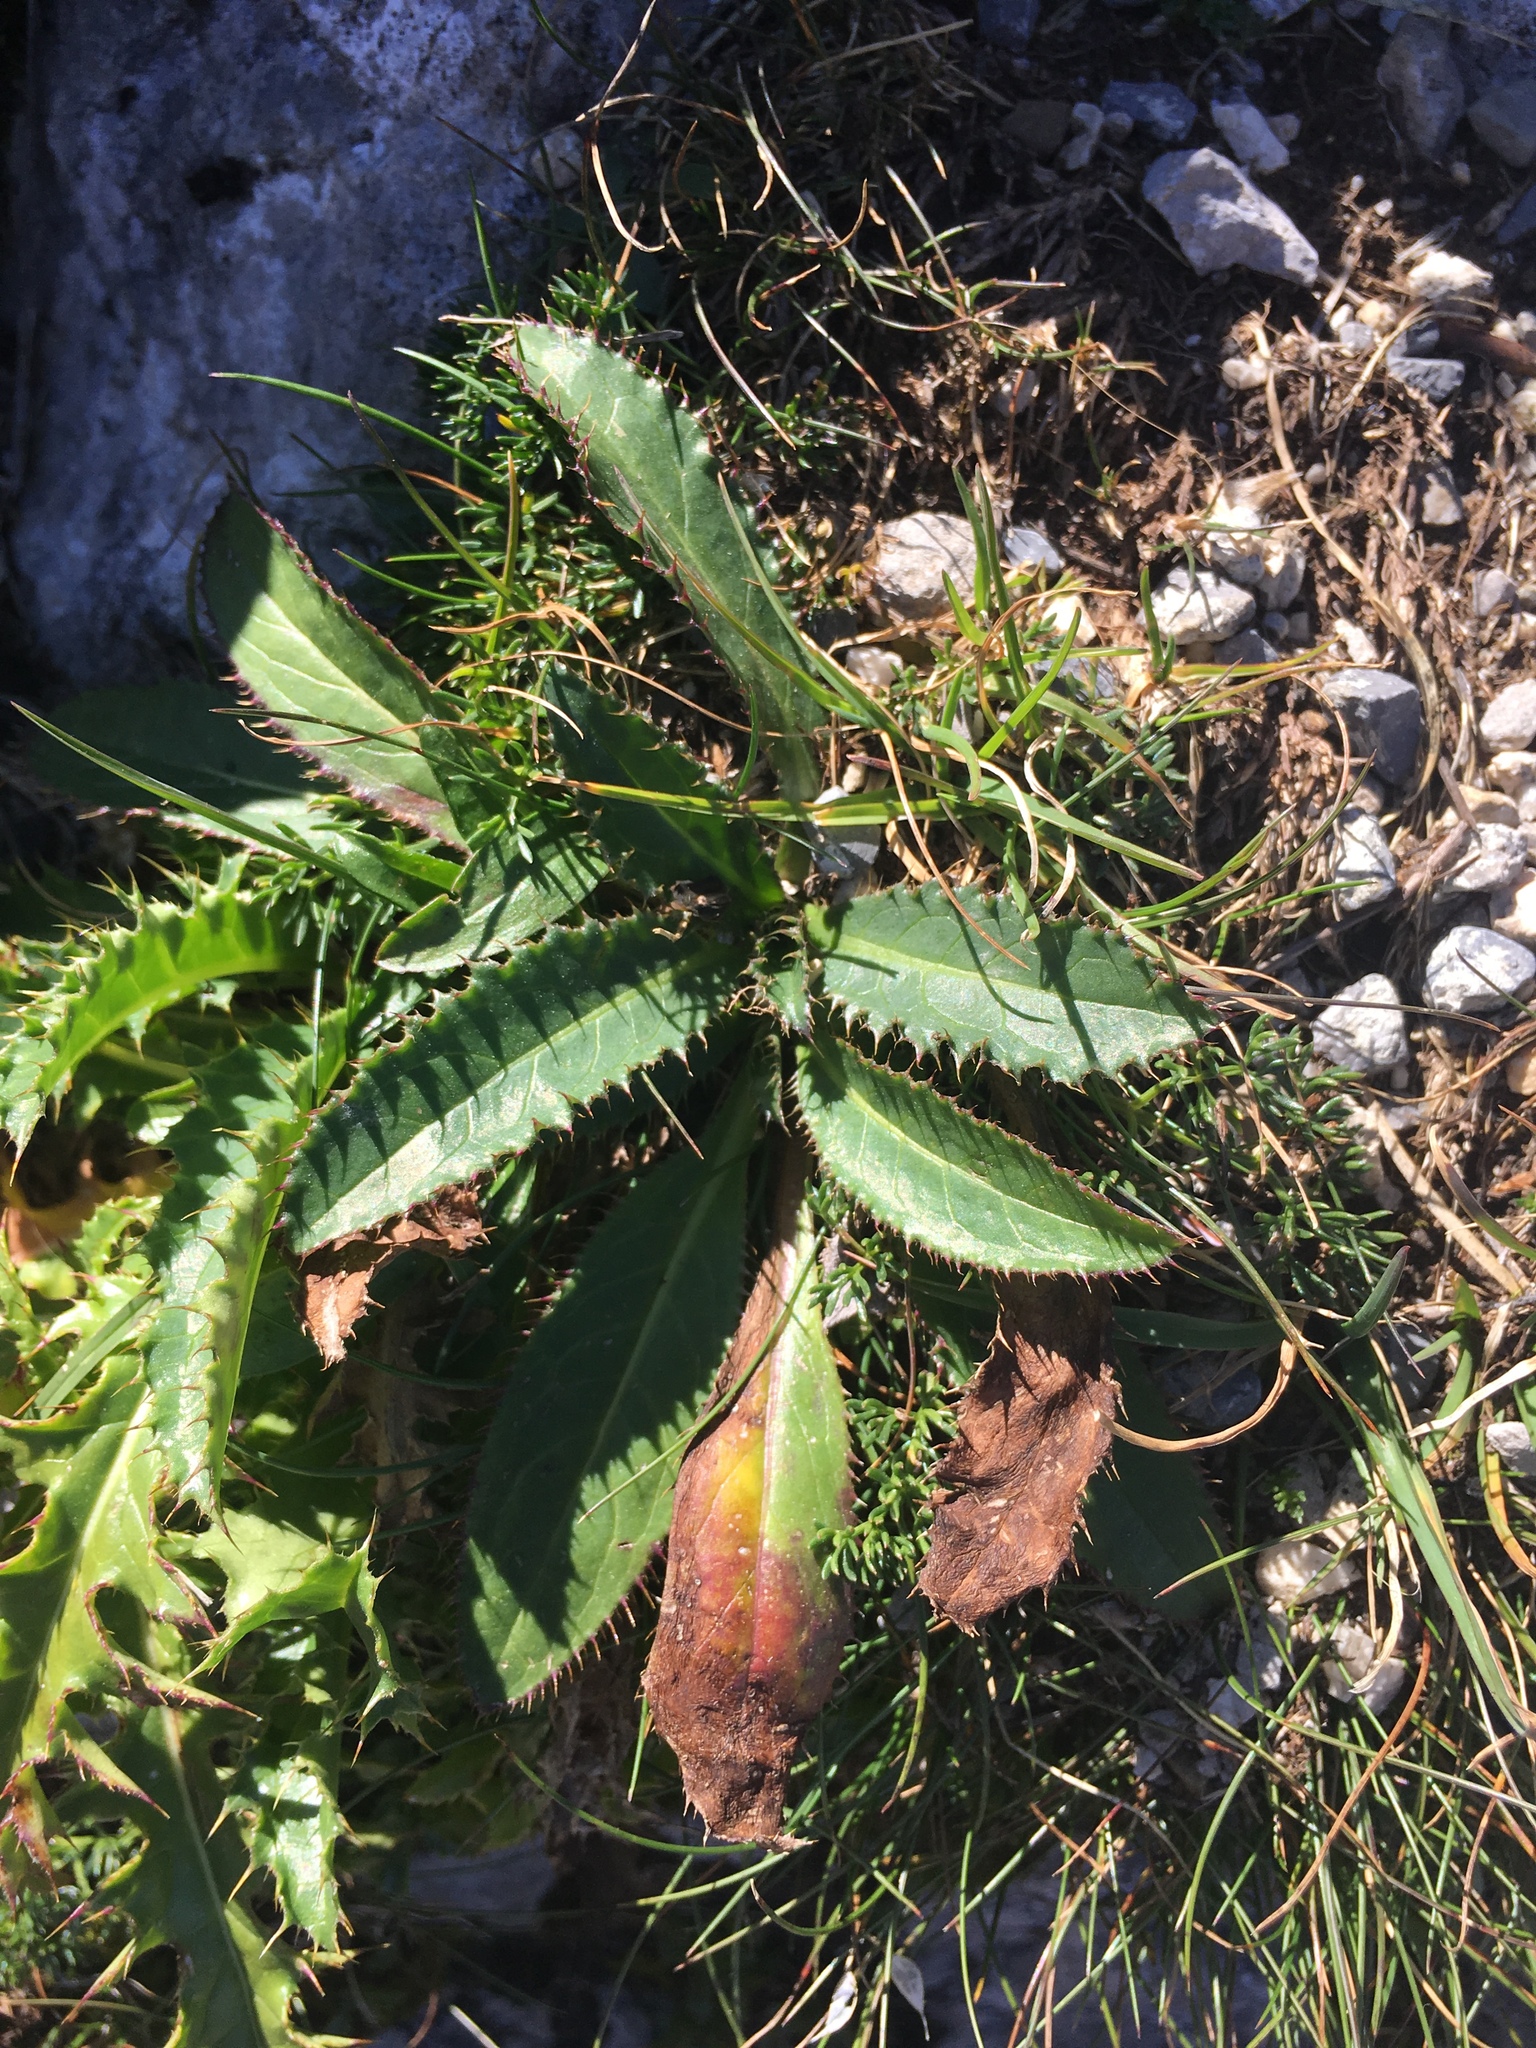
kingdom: Plantae
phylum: Tracheophyta
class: Magnoliopsida
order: Asterales
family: Asteraceae
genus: Carduus
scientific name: Carduus defloratus
